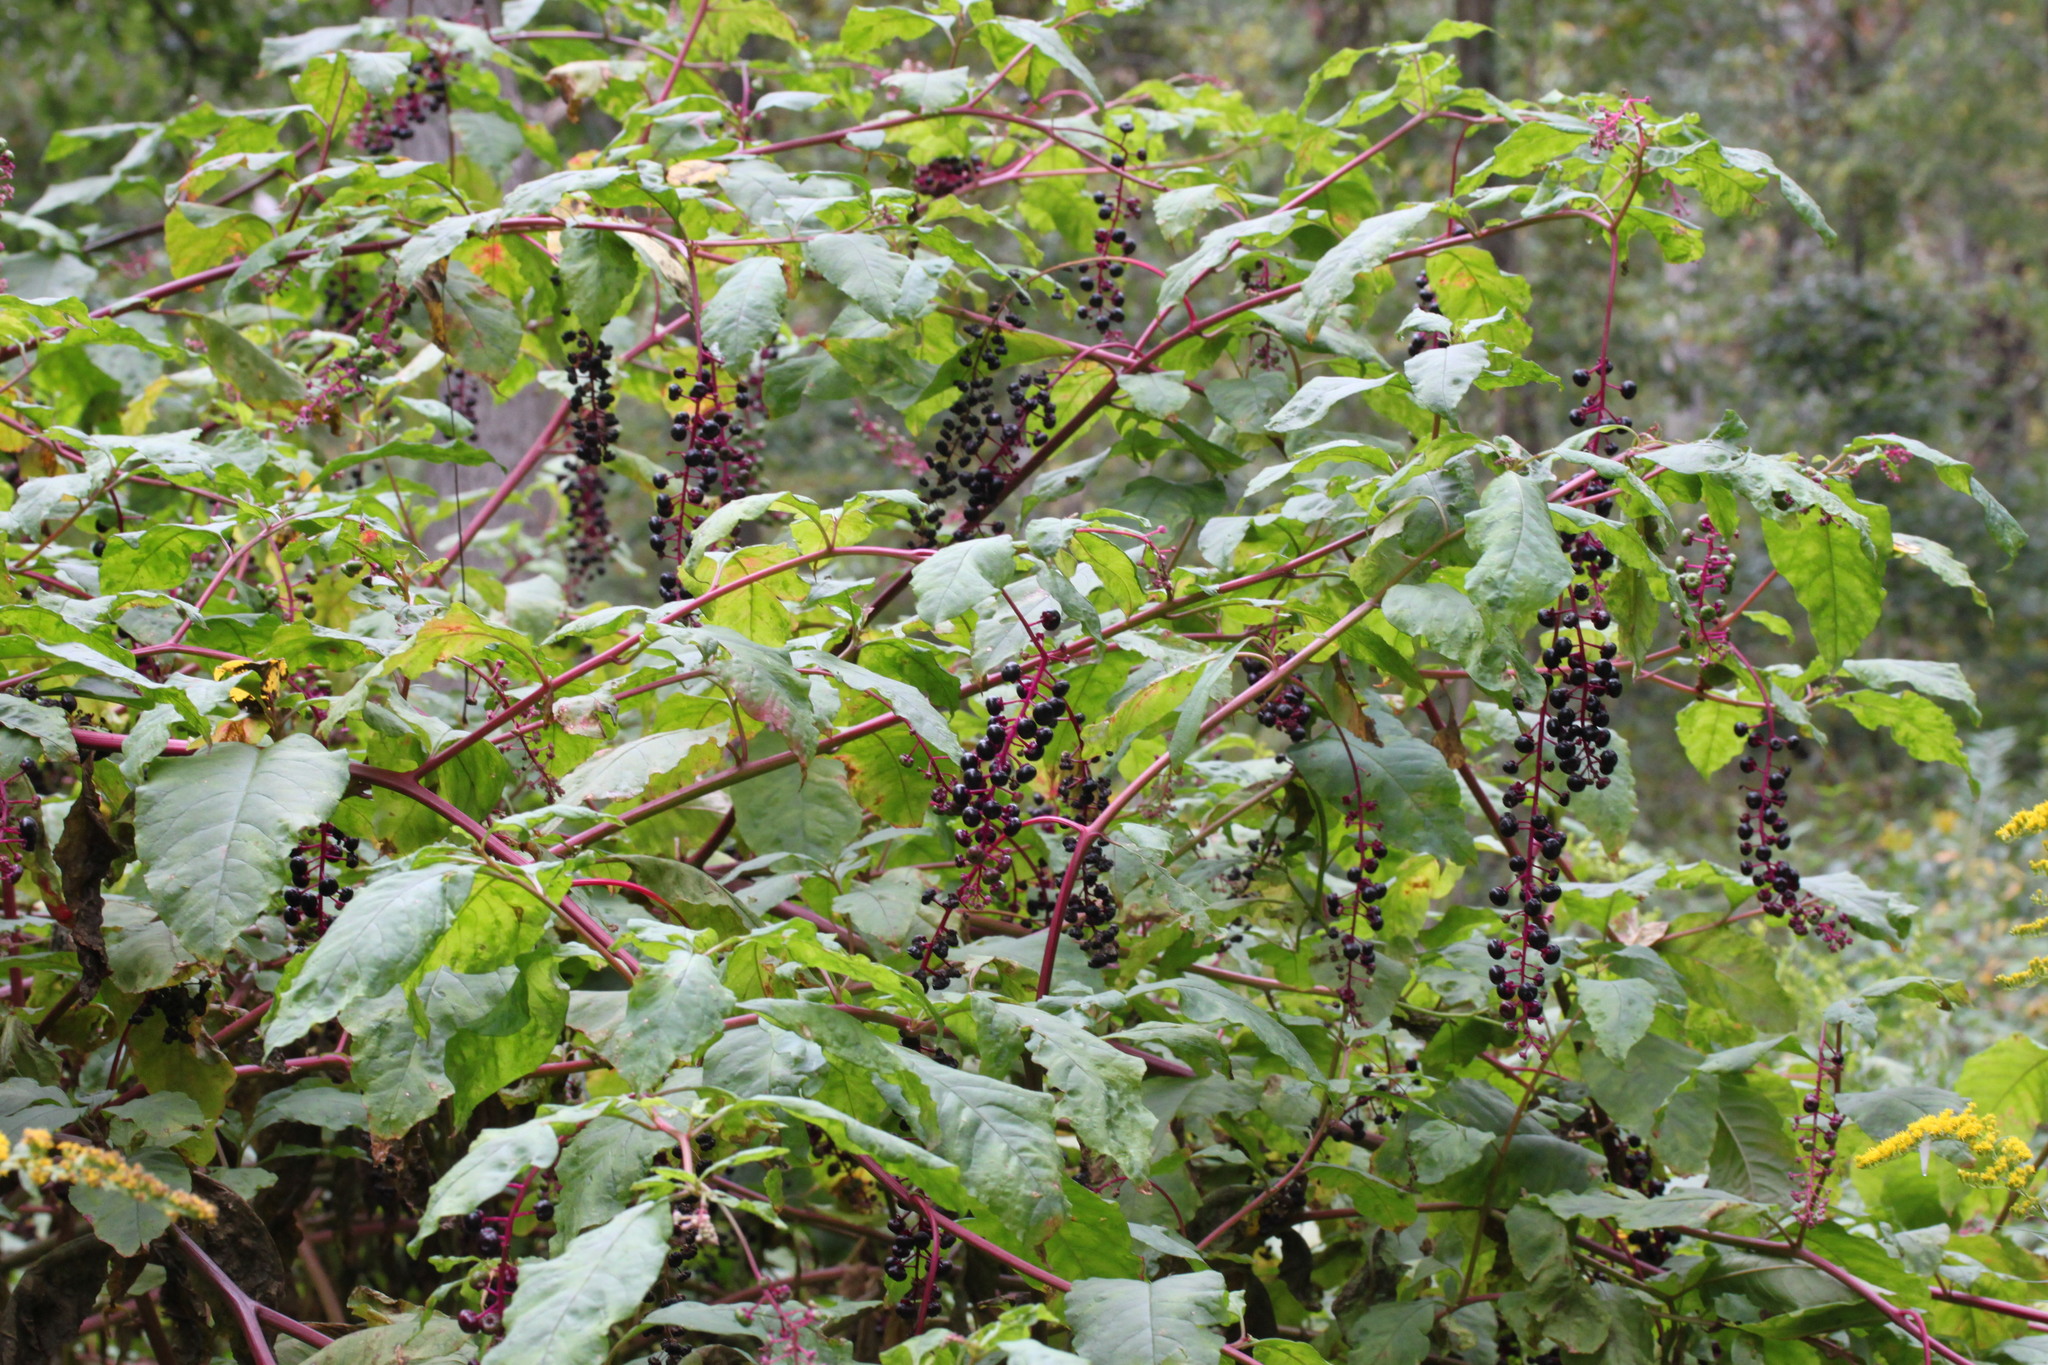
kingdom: Plantae
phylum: Tracheophyta
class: Magnoliopsida
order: Caryophyllales
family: Phytolaccaceae
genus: Phytolacca
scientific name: Phytolacca americana
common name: American pokeweed
